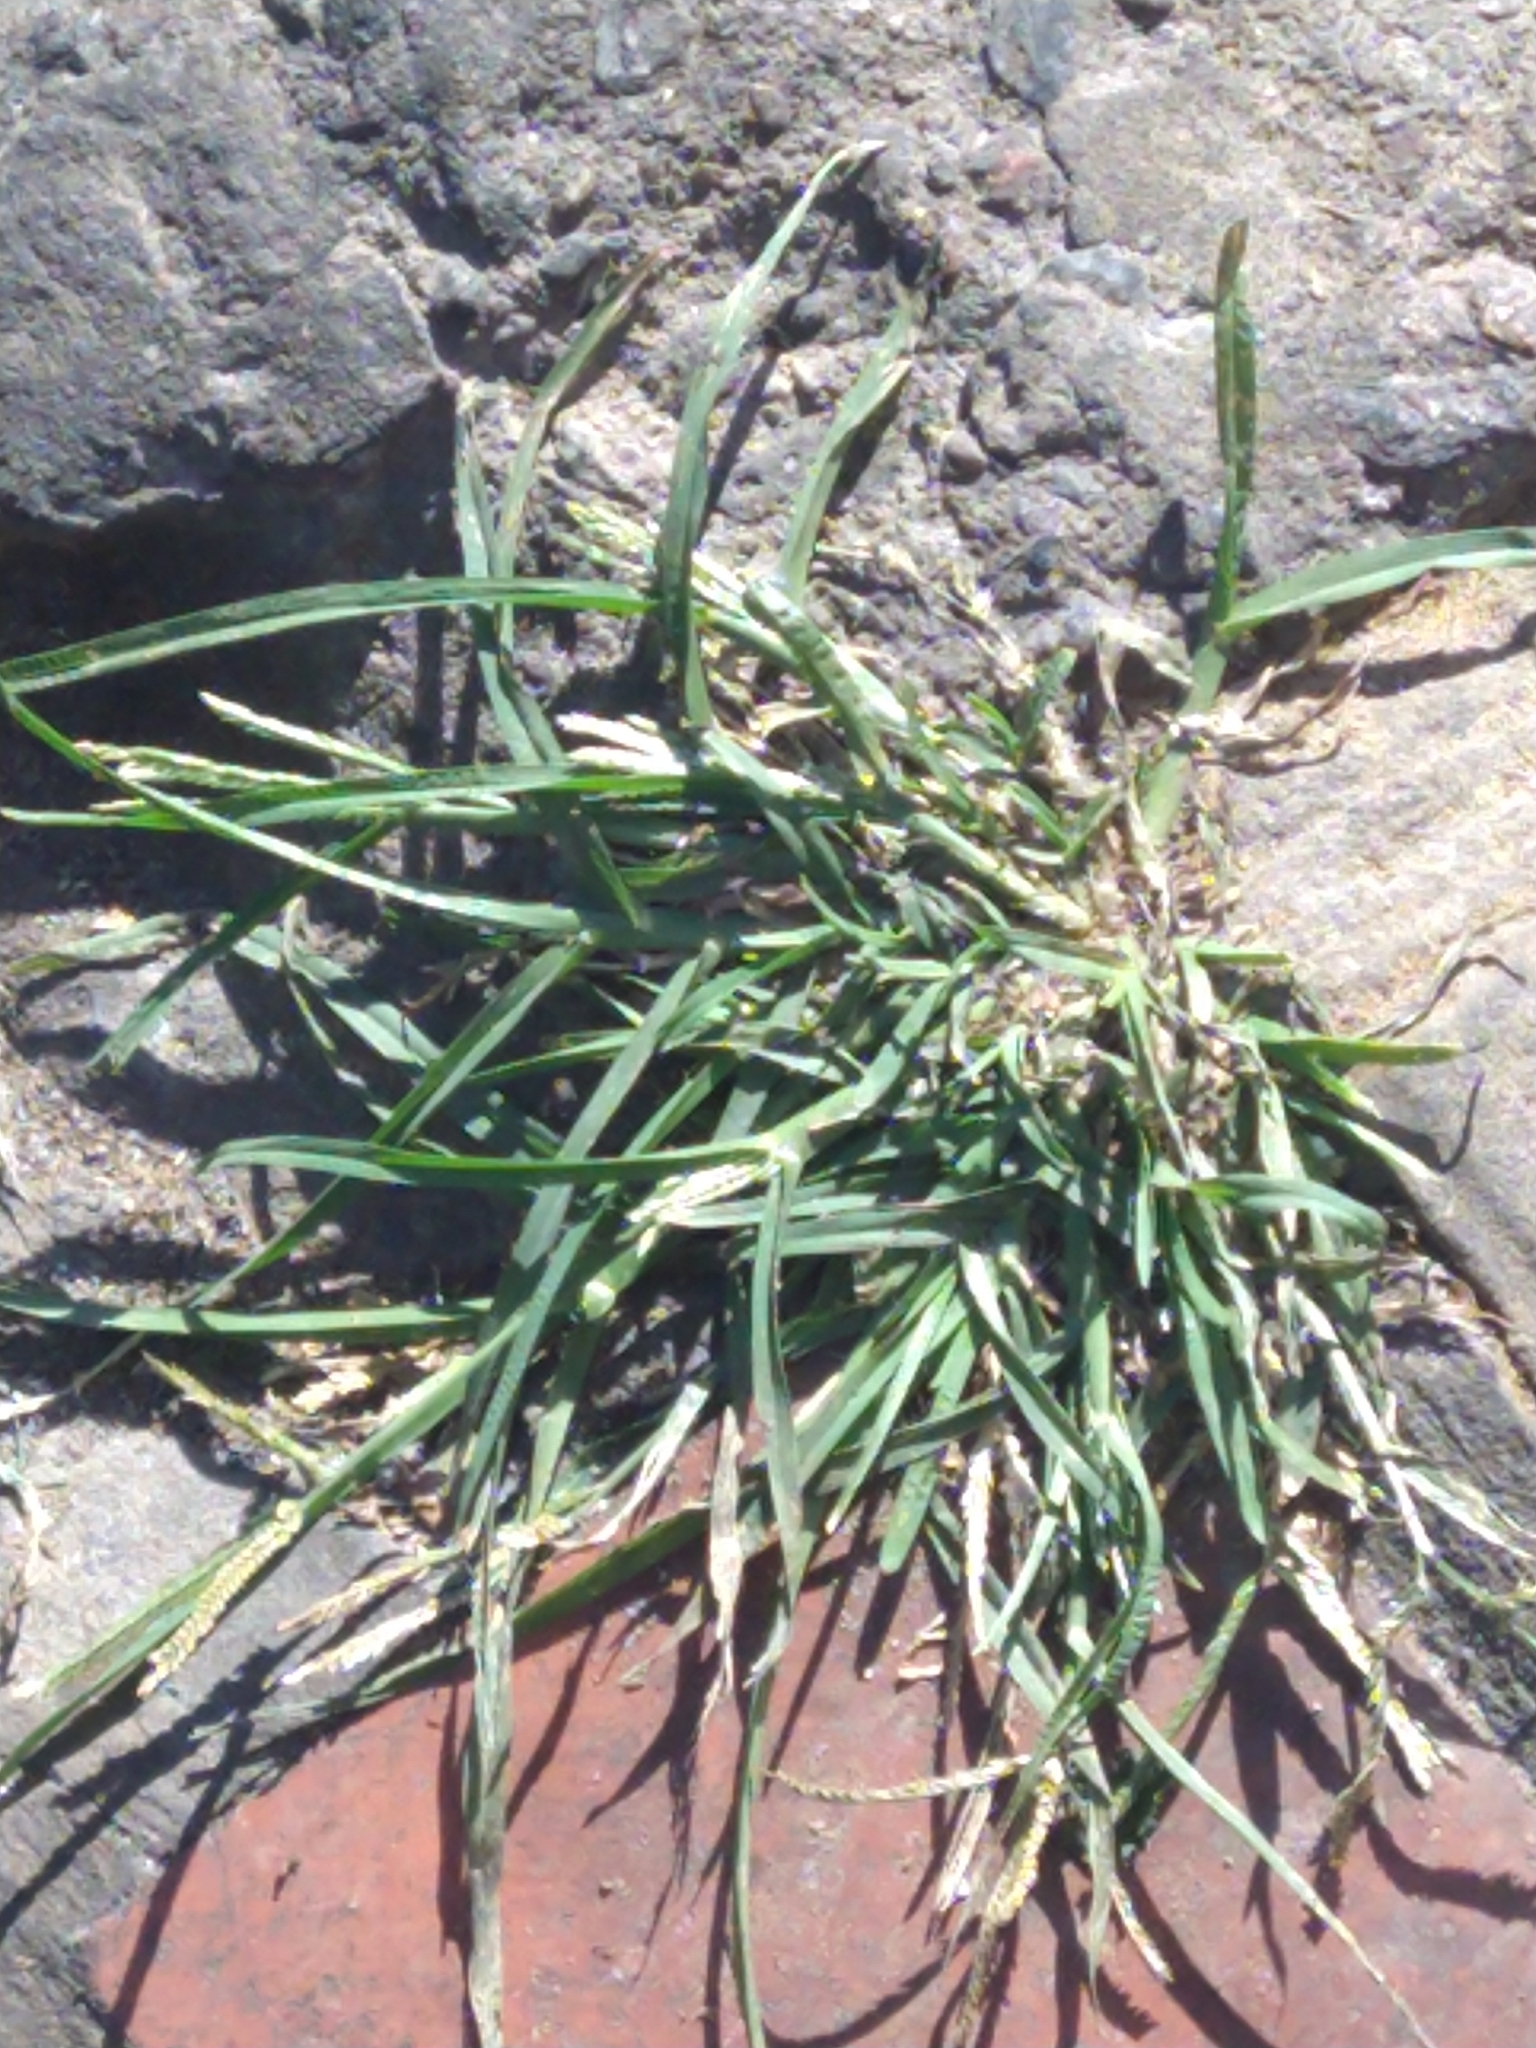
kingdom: Plantae
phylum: Tracheophyta
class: Liliopsida
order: Poales
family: Poaceae
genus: Eleusine
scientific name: Eleusine indica
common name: Yard-grass
